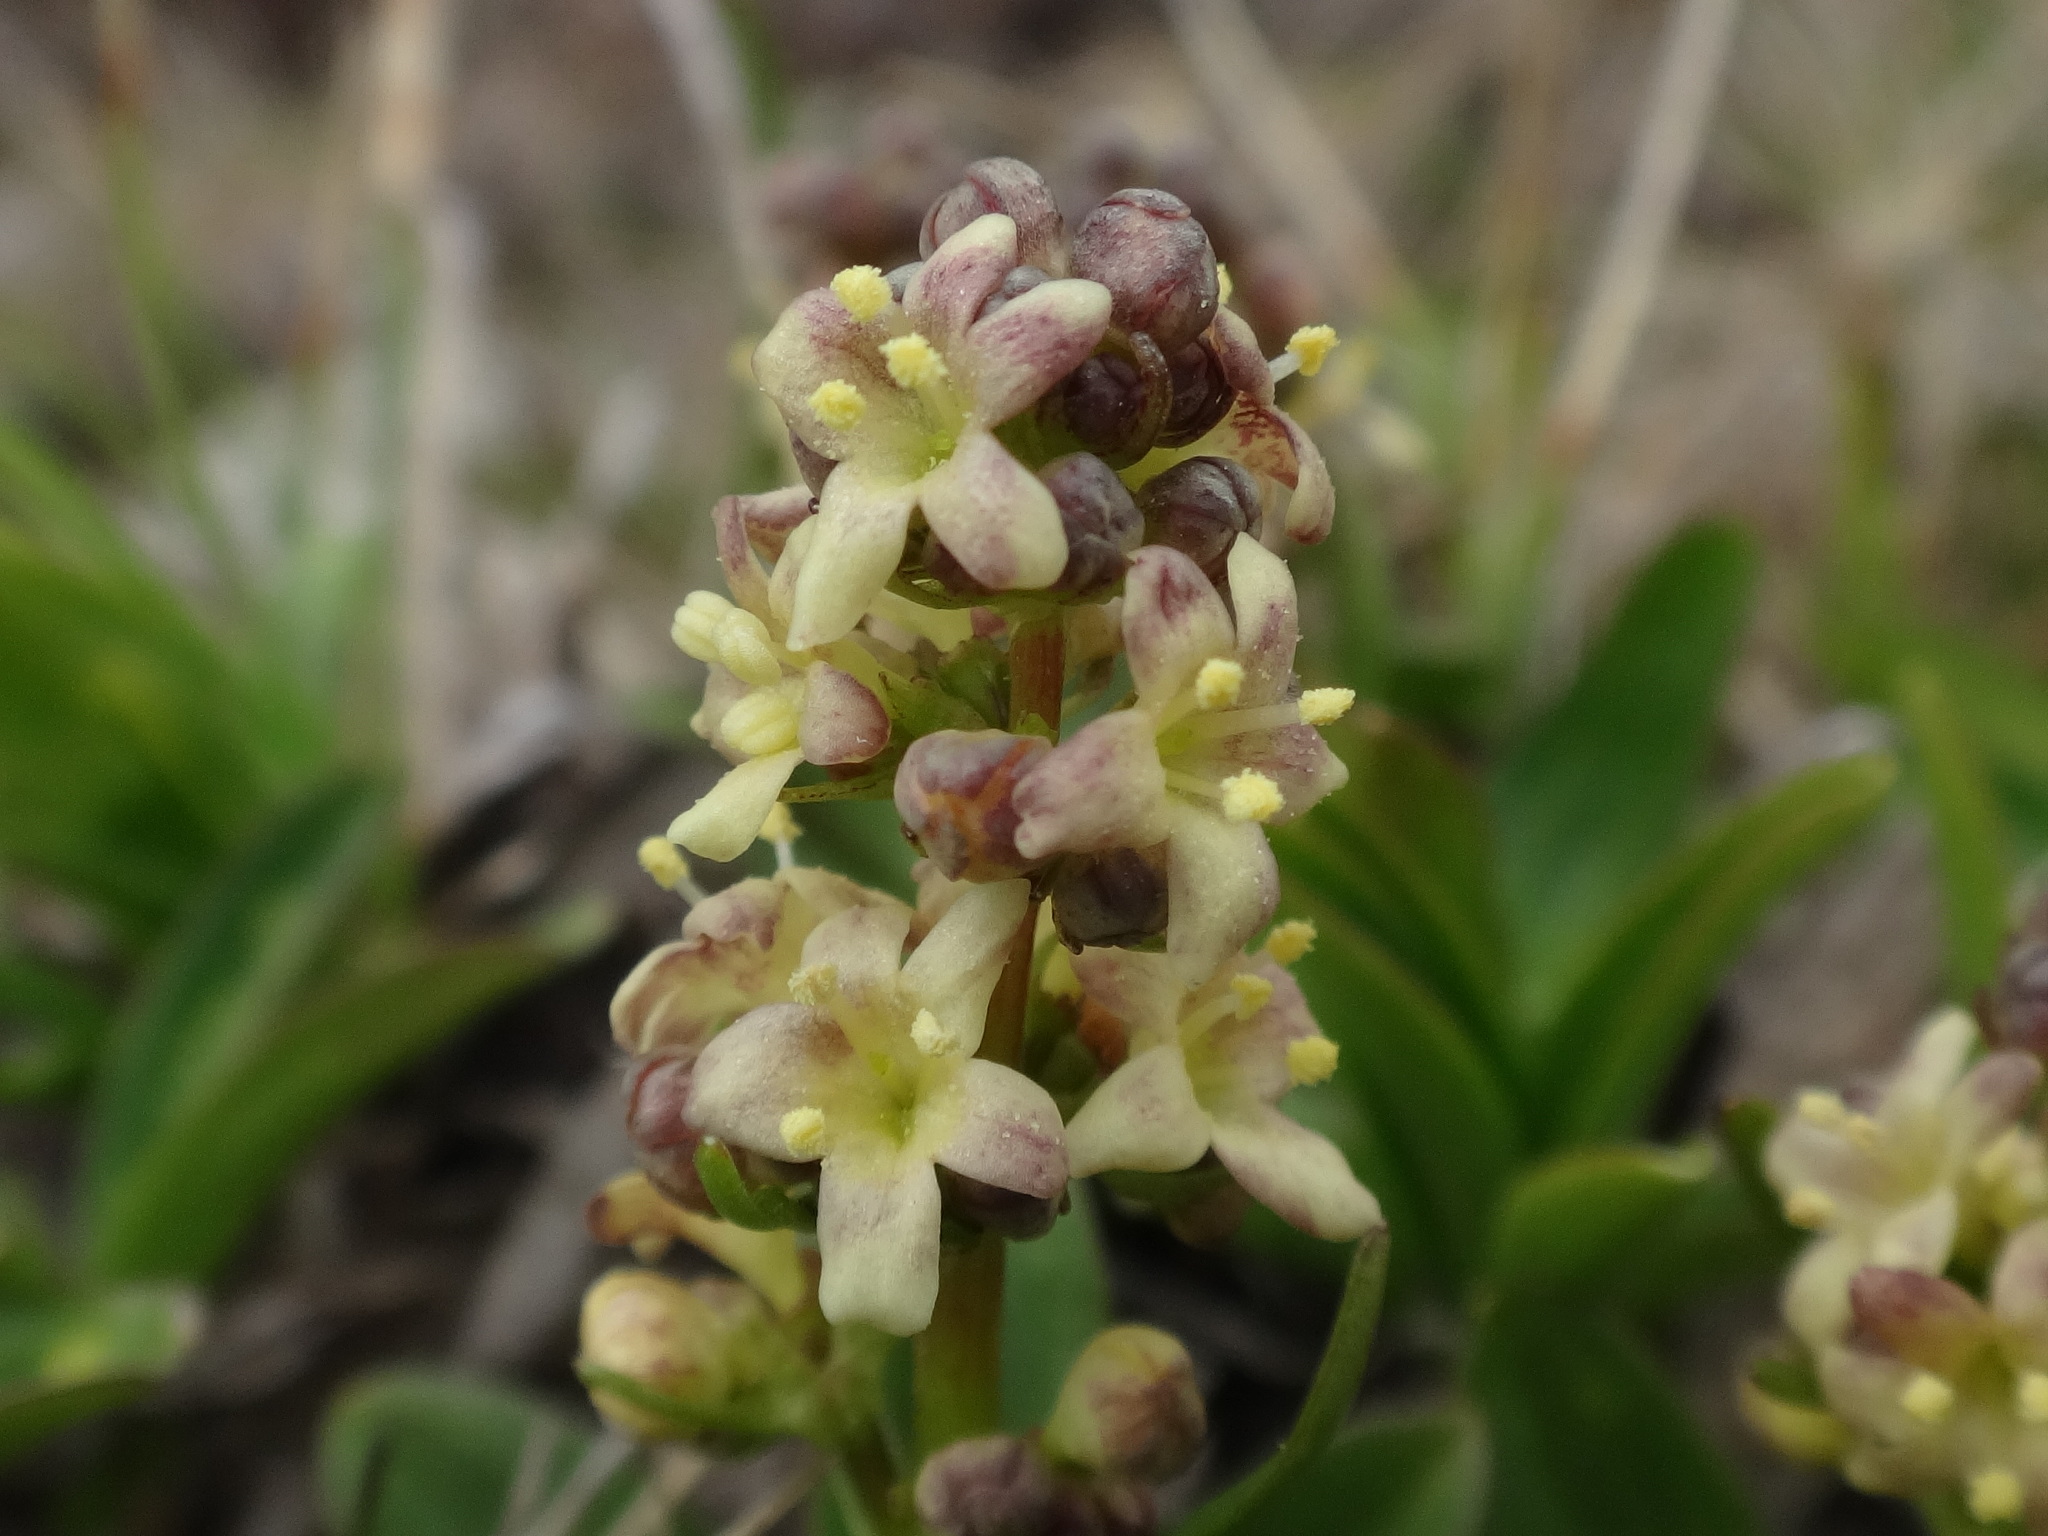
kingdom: Plantae
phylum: Tracheophyta
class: Magnoliopsida
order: Dipsacales
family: Caprifoliaceae
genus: Valeriana
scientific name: Valeriana celtica
